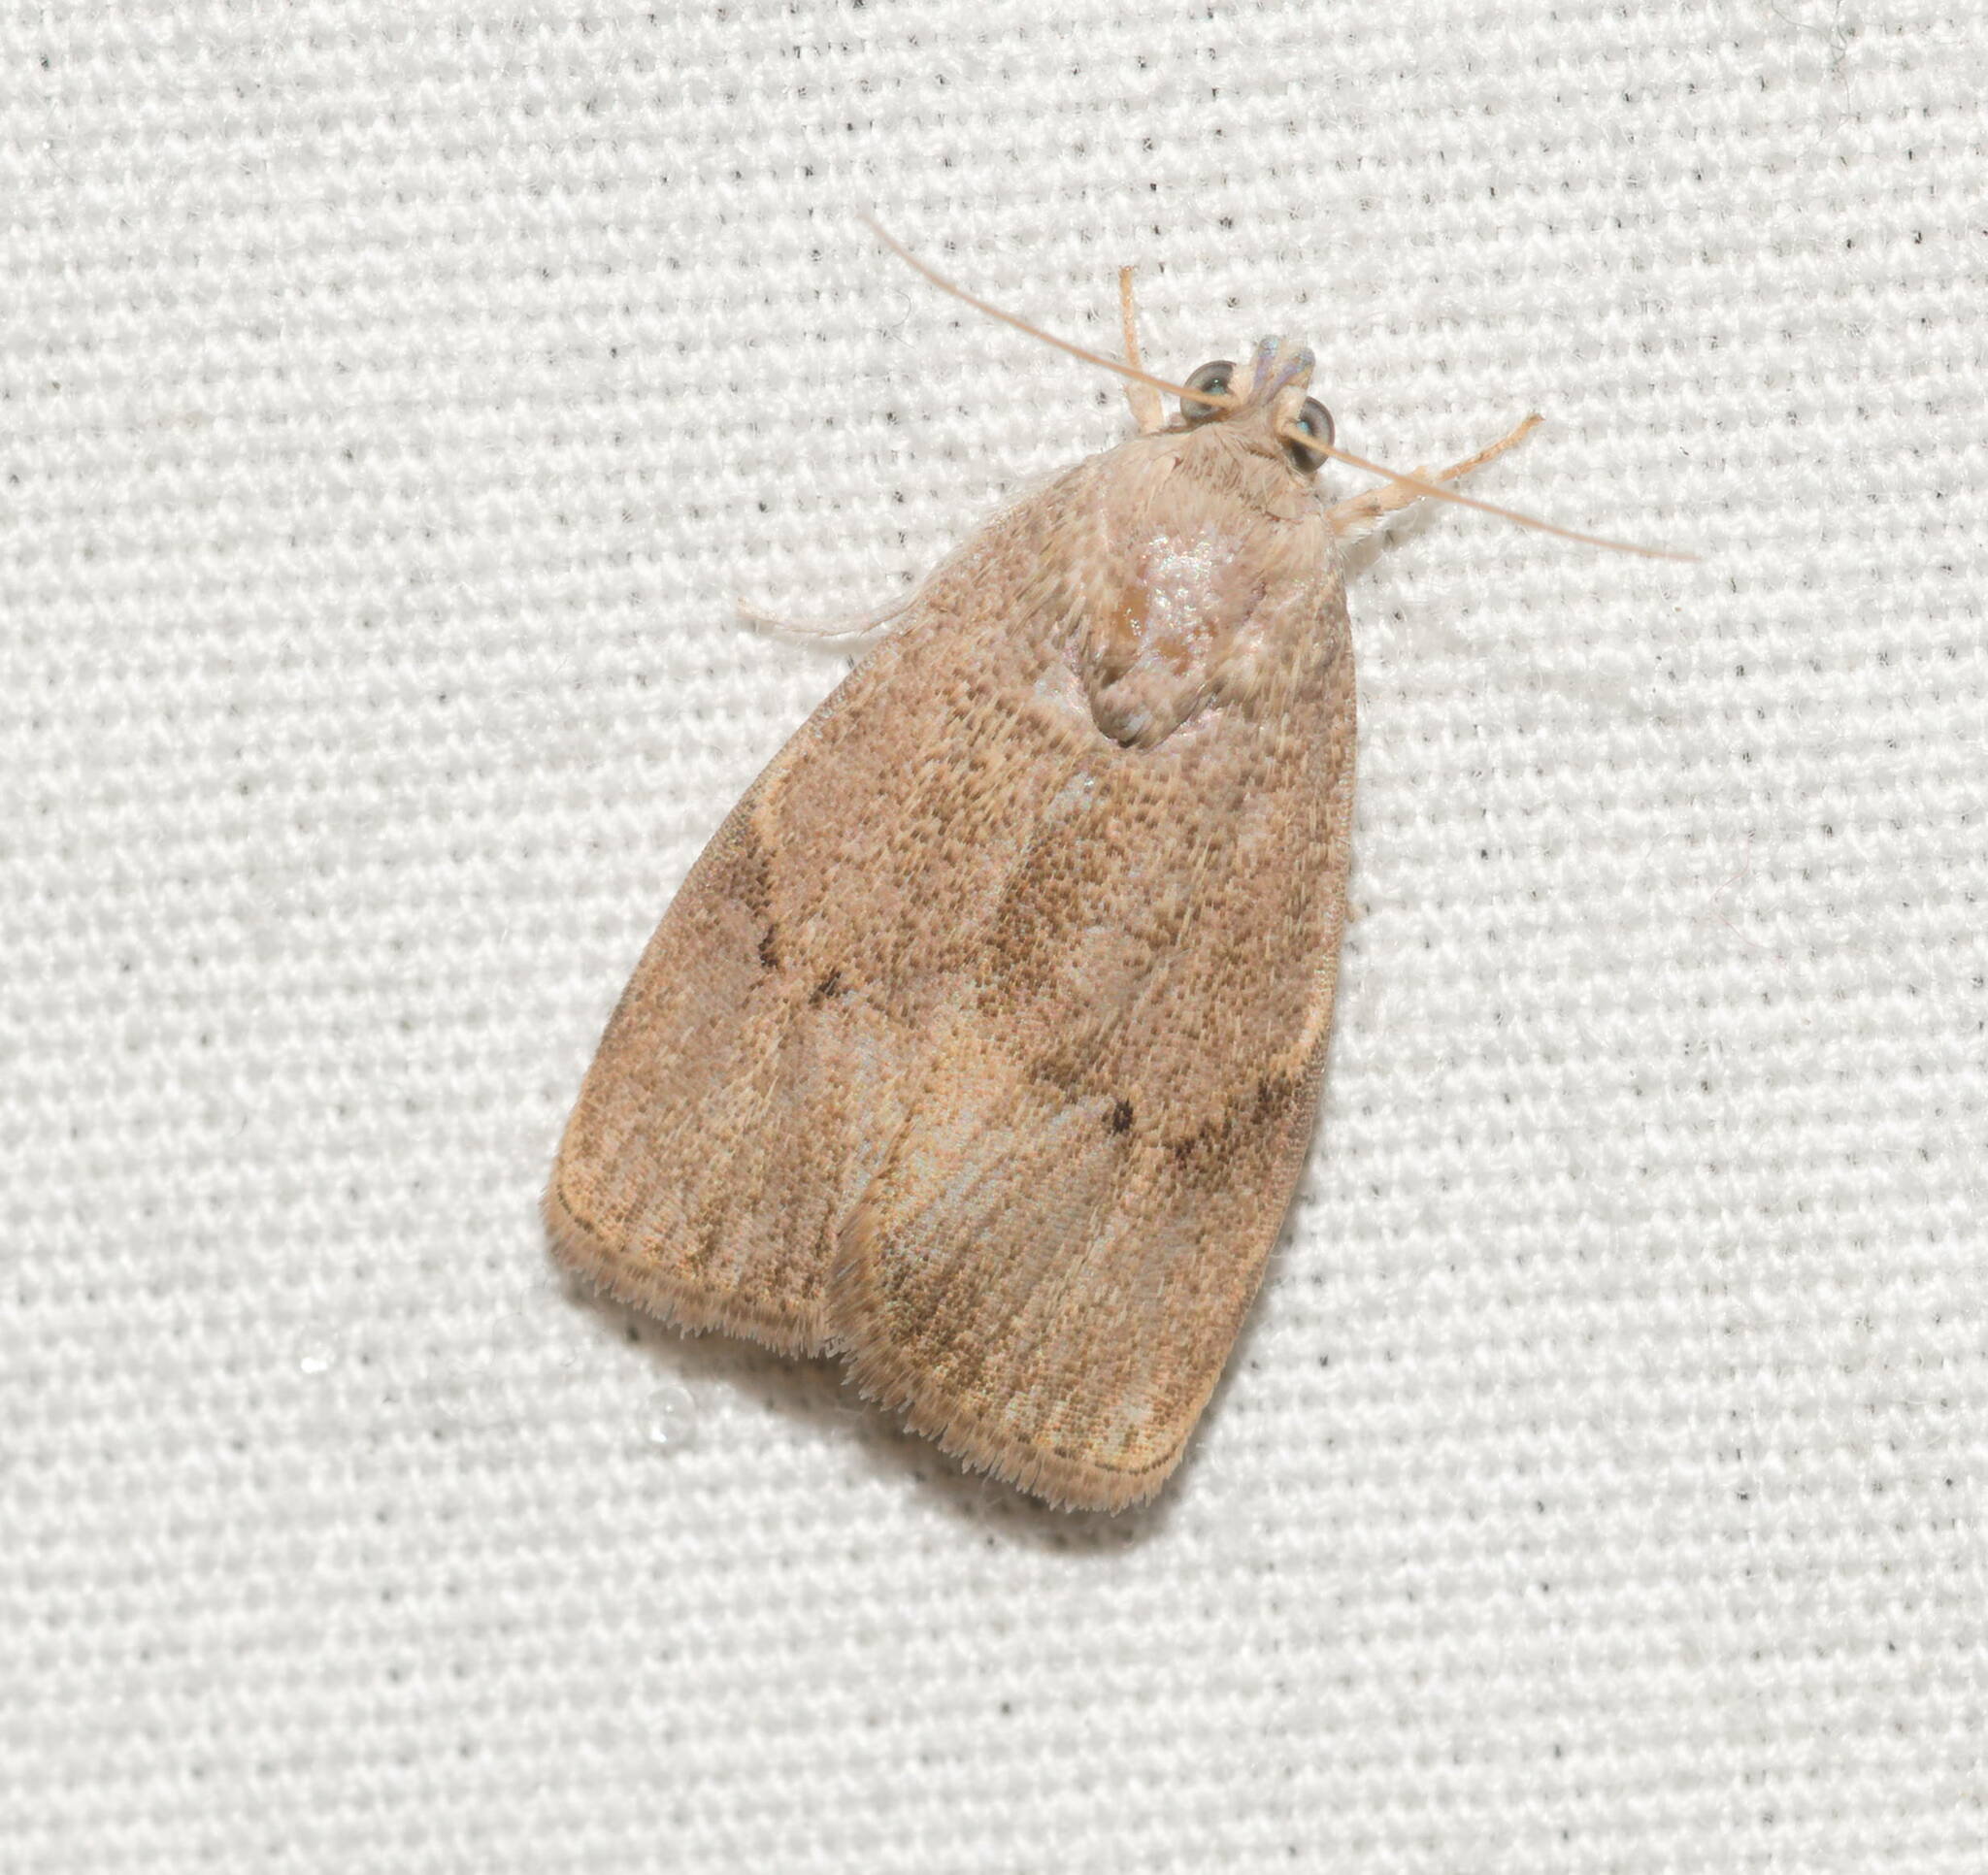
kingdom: Animalia
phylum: Arthropoda
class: Insecta
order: Lepidoptera
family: Immidae
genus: Imma
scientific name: Imma mylias
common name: Moth
